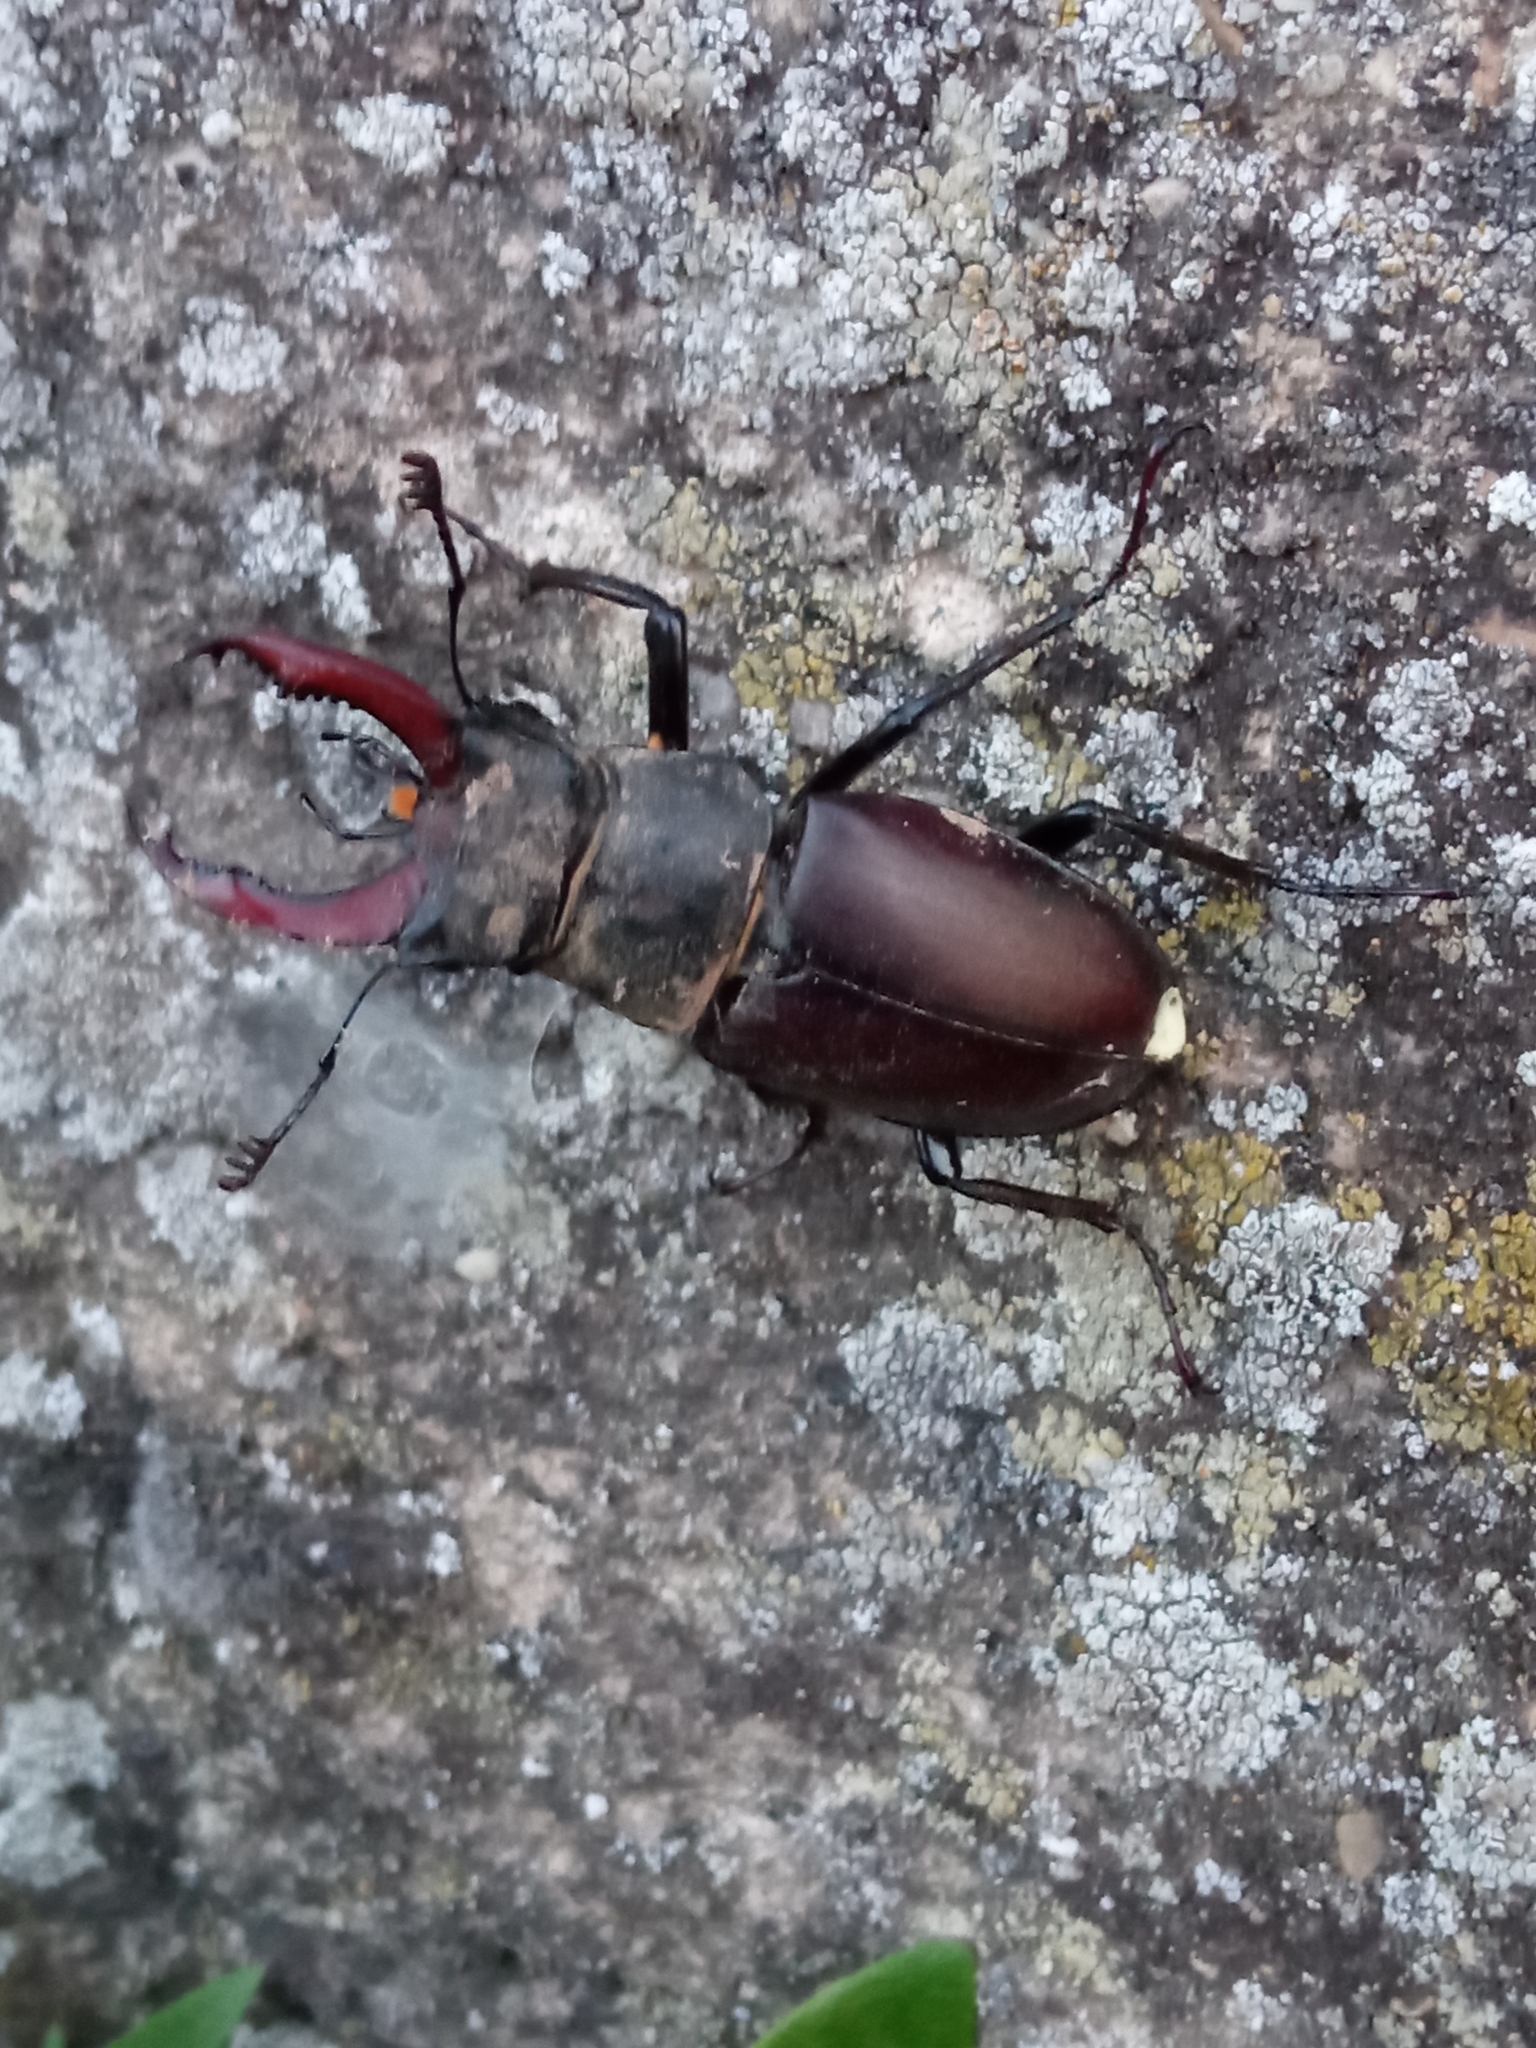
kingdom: Animalia
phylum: Arthropoda
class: Insecta
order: Coleoptera
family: Lucanidae
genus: Lucanus
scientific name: Lucanus cervus
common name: Stag beetle
